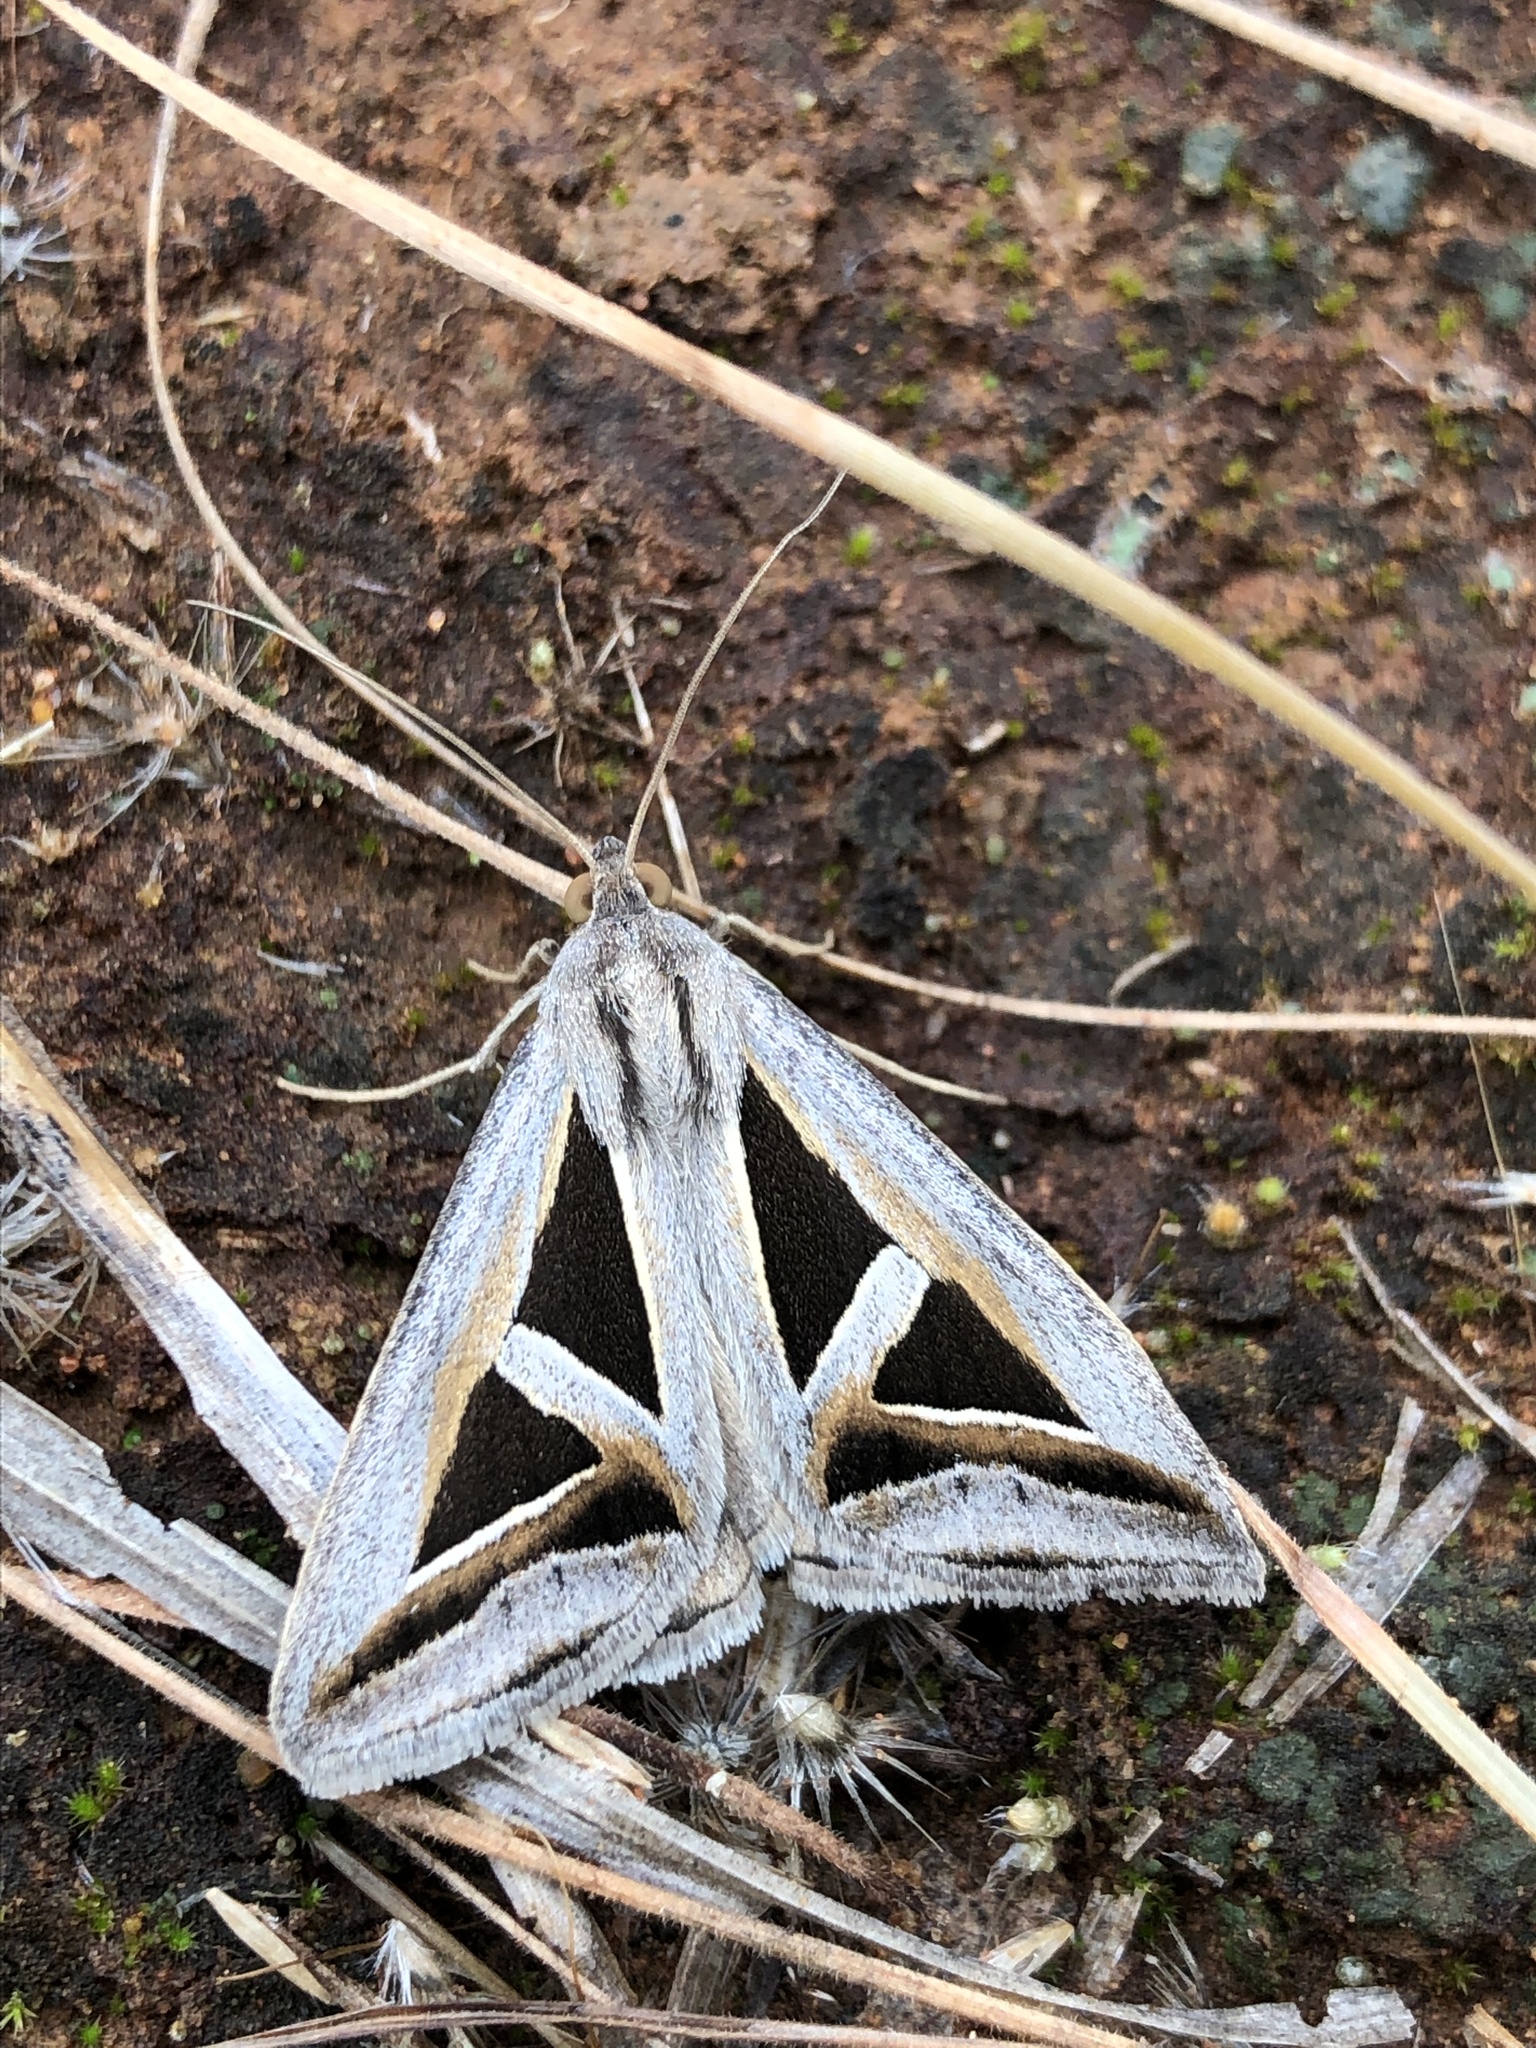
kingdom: Animalia
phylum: Arthropoda
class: Insecta
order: Lepidoptera
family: Erebidae
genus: Trigonodes
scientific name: Trigonodes hyppasia
